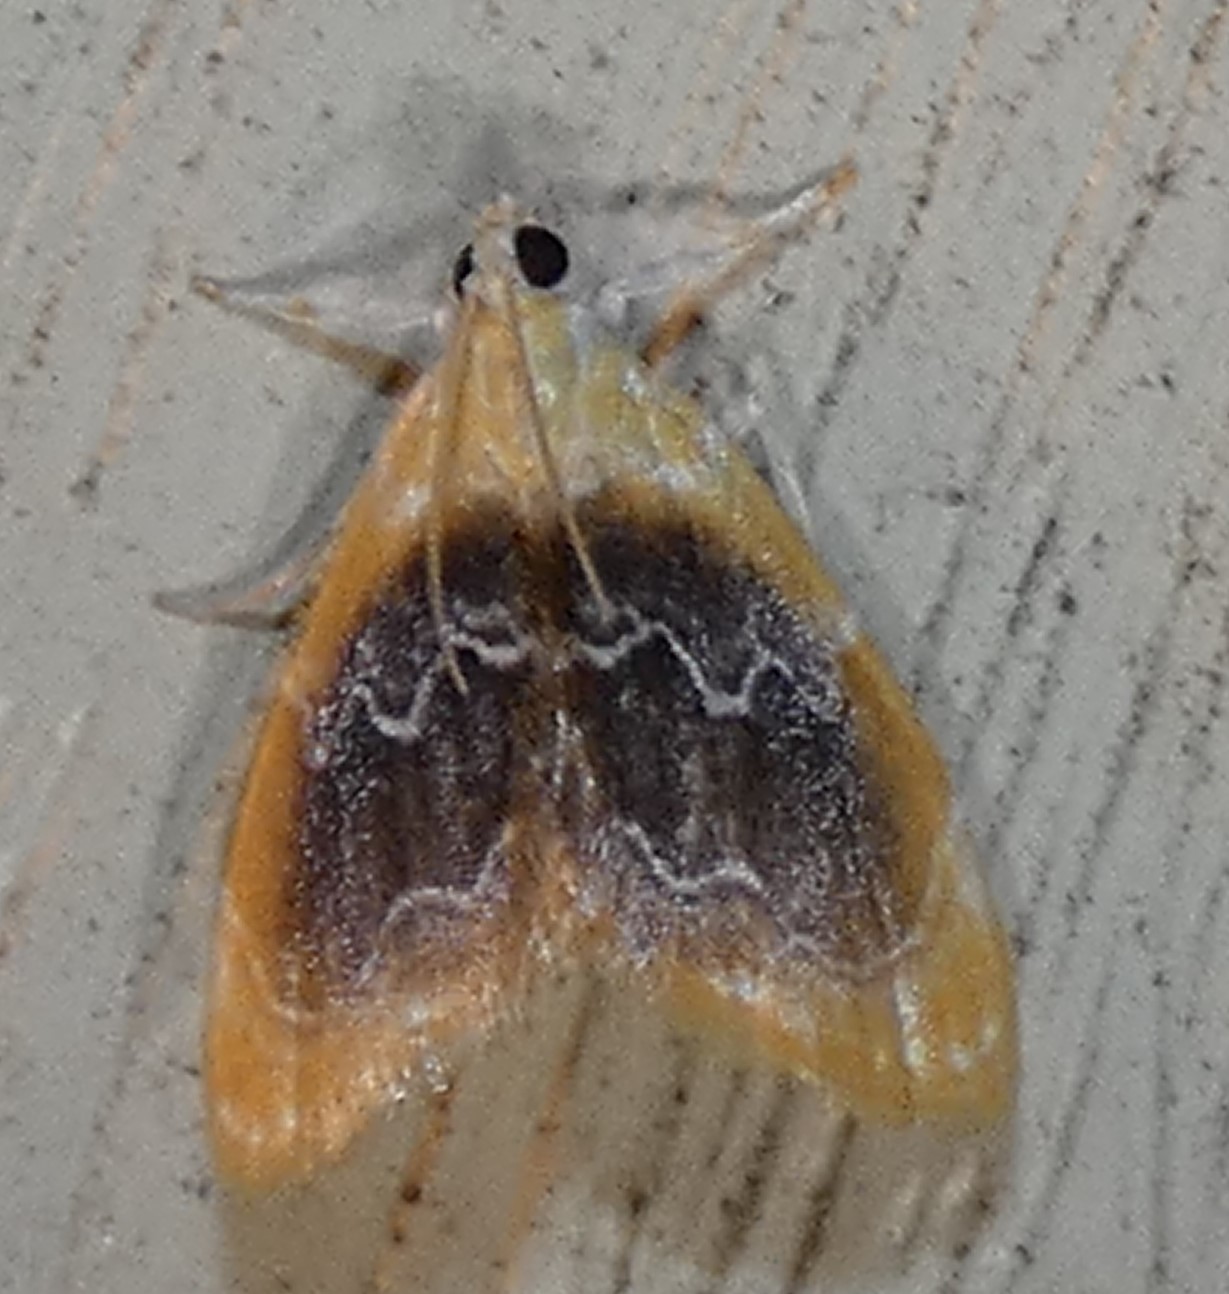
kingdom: Animalia
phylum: Arthropoda
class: Insecta
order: Lepidoptera
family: Crambidae
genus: Glaphyria
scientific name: Glaphyria fulminalis
